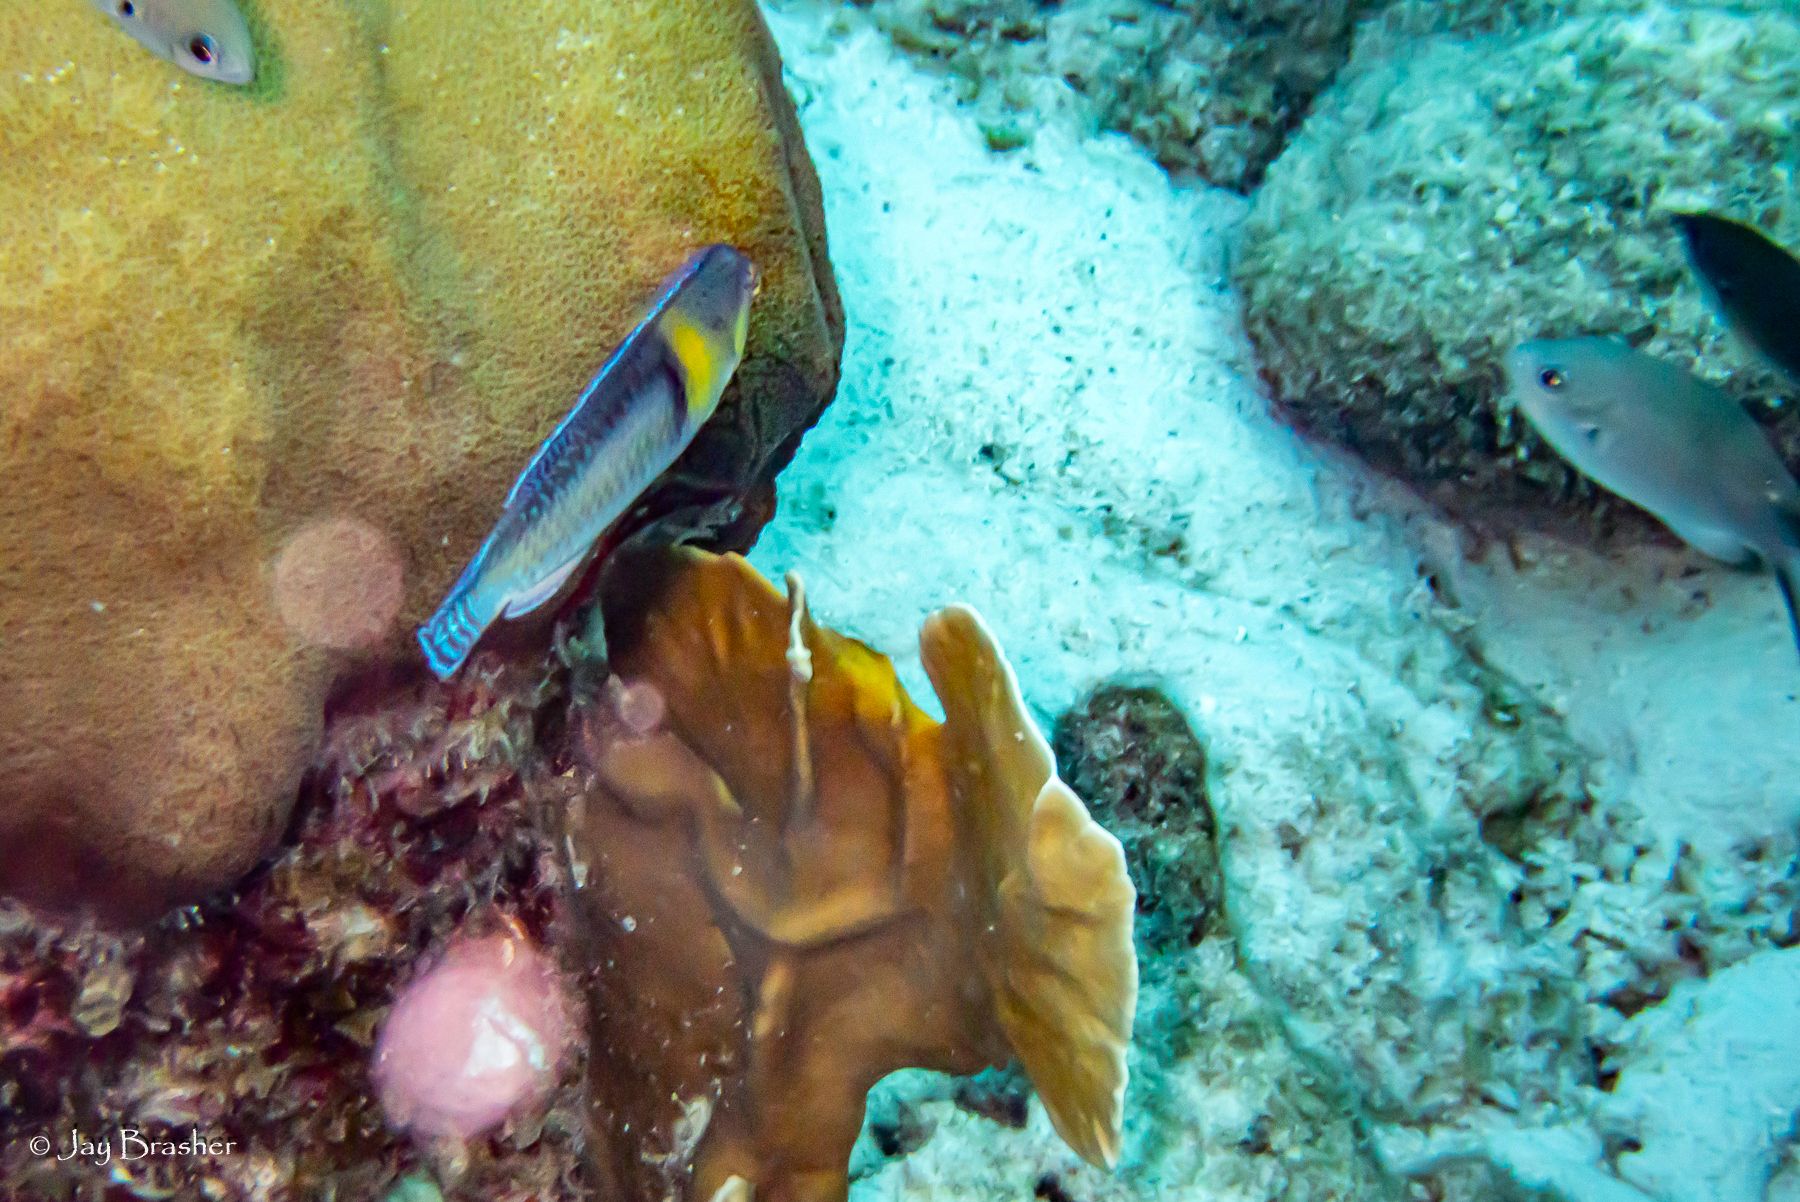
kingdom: Animalia
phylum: Chordata
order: Perciformes
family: Pomacentridae
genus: Chromis
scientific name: Chromis multilineata
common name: Brown chromis
